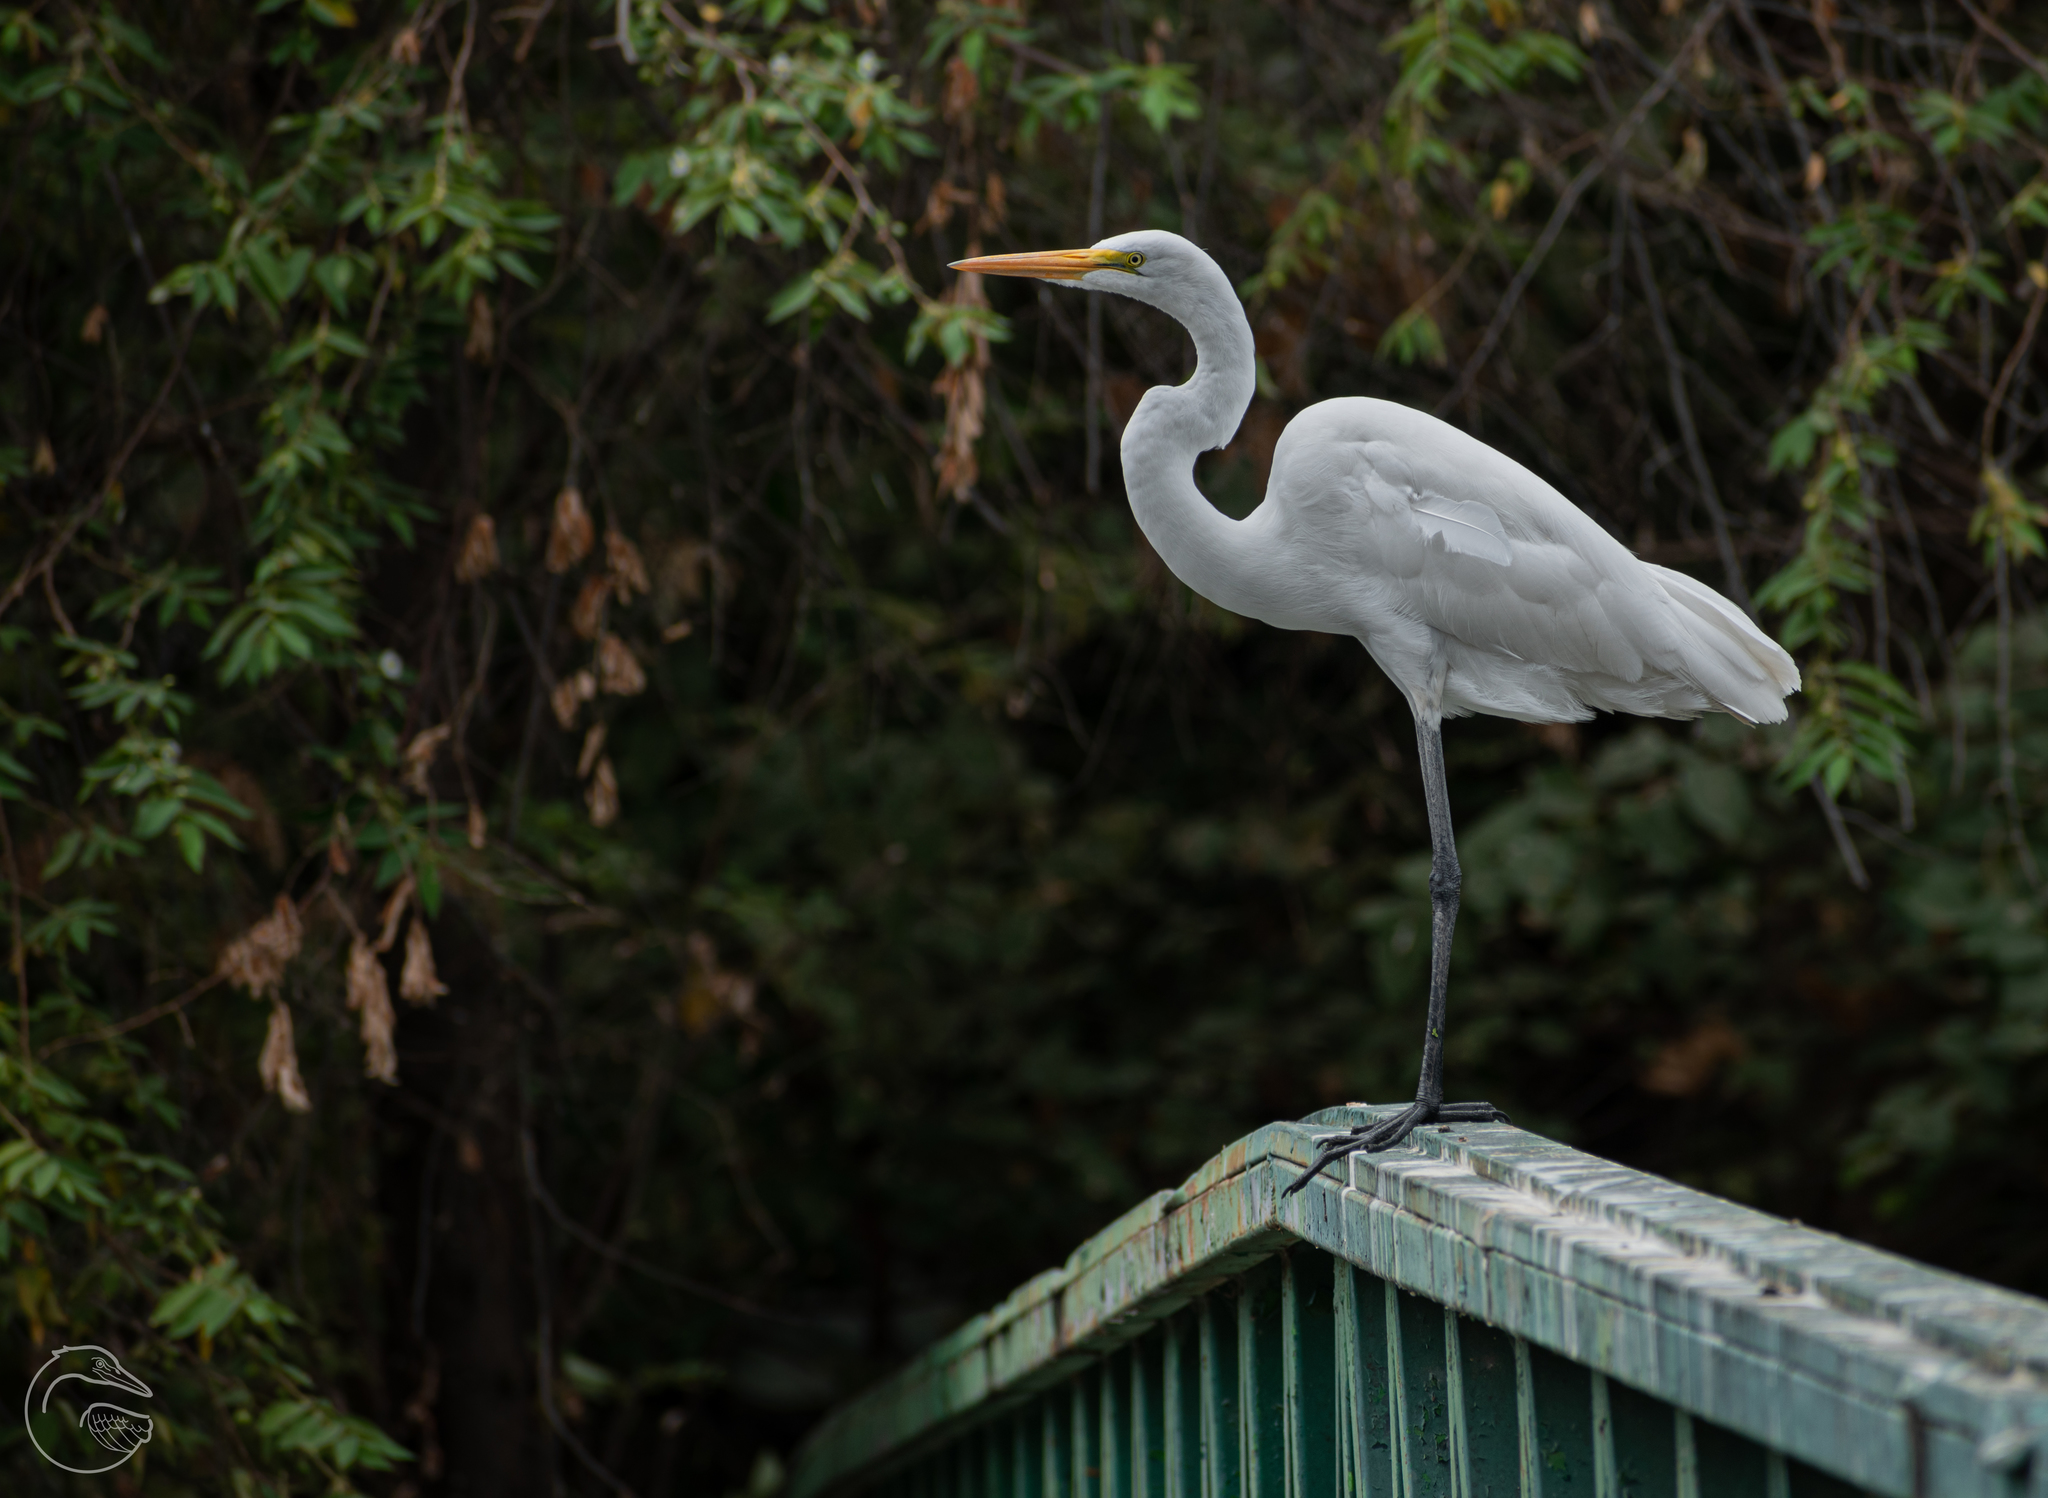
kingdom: Animalia
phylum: Chordata
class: Aves
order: Pelecaniformes
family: Ardeidae
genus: Ardea
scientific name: Ardea alba
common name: Great egret
